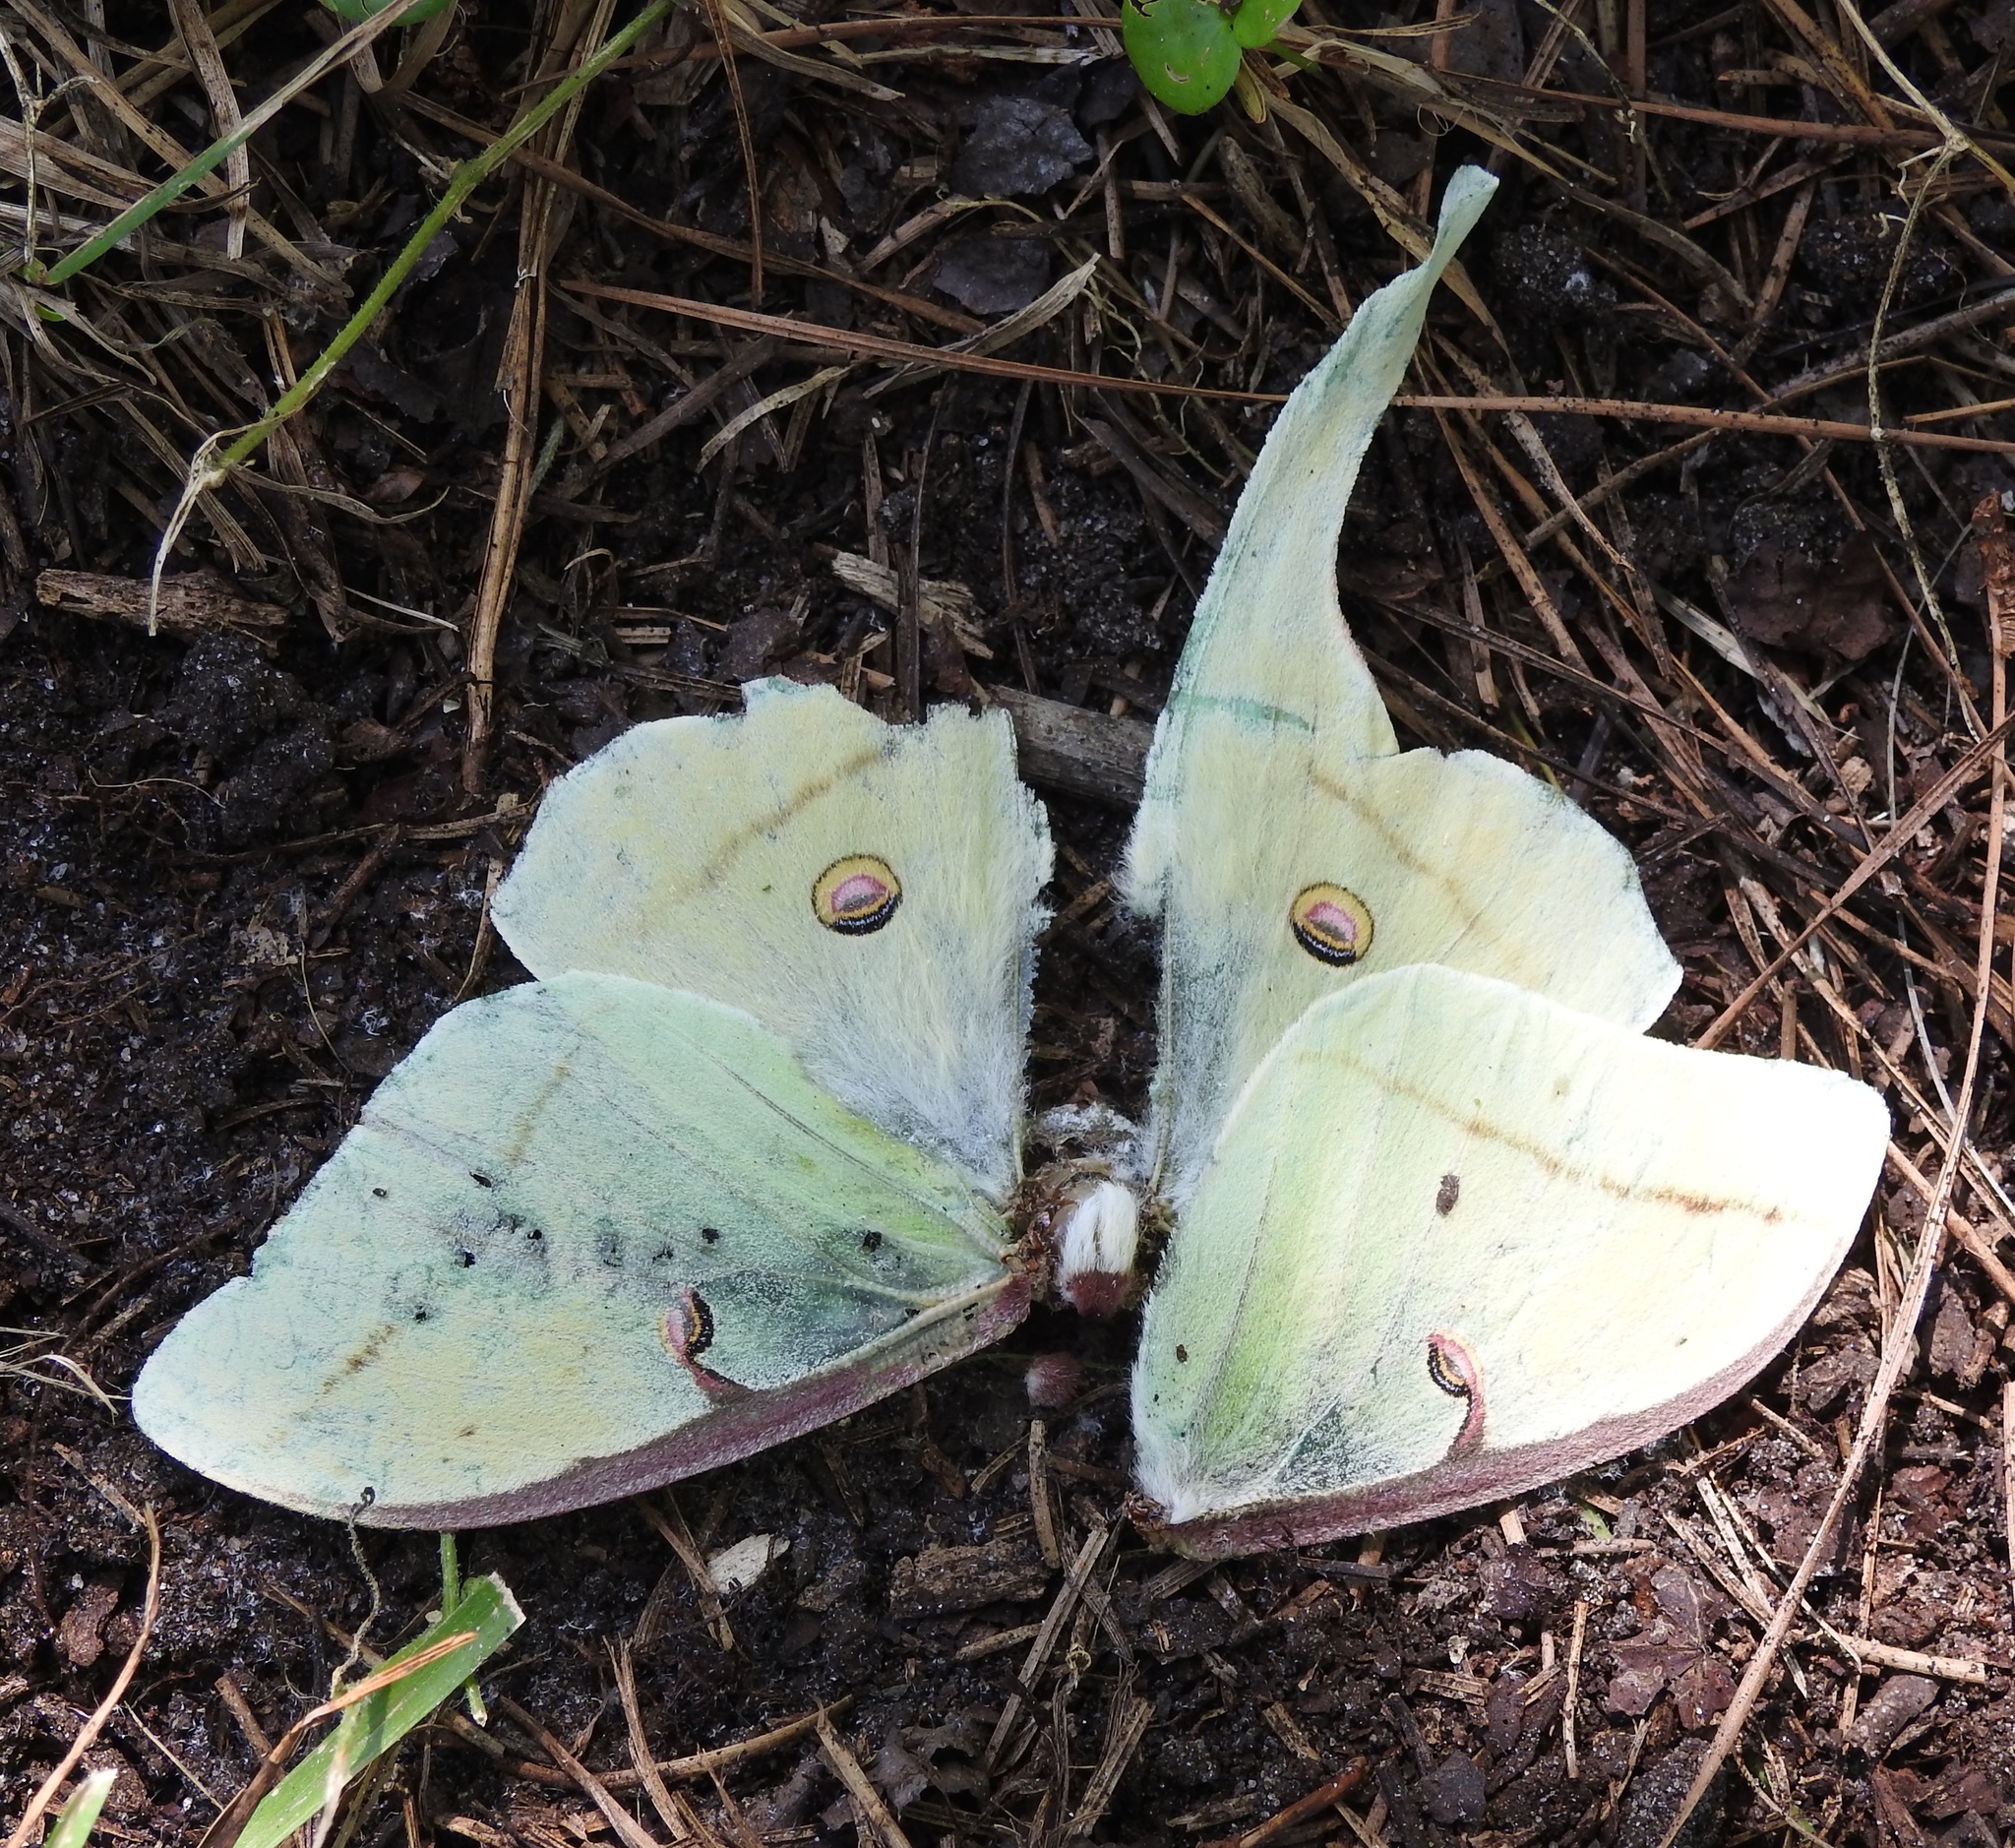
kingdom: Animalia
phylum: Arthropoda
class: Insecta
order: Lepidoptera
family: Saturniidae
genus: Actias
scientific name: Actias luna
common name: Luna moth
